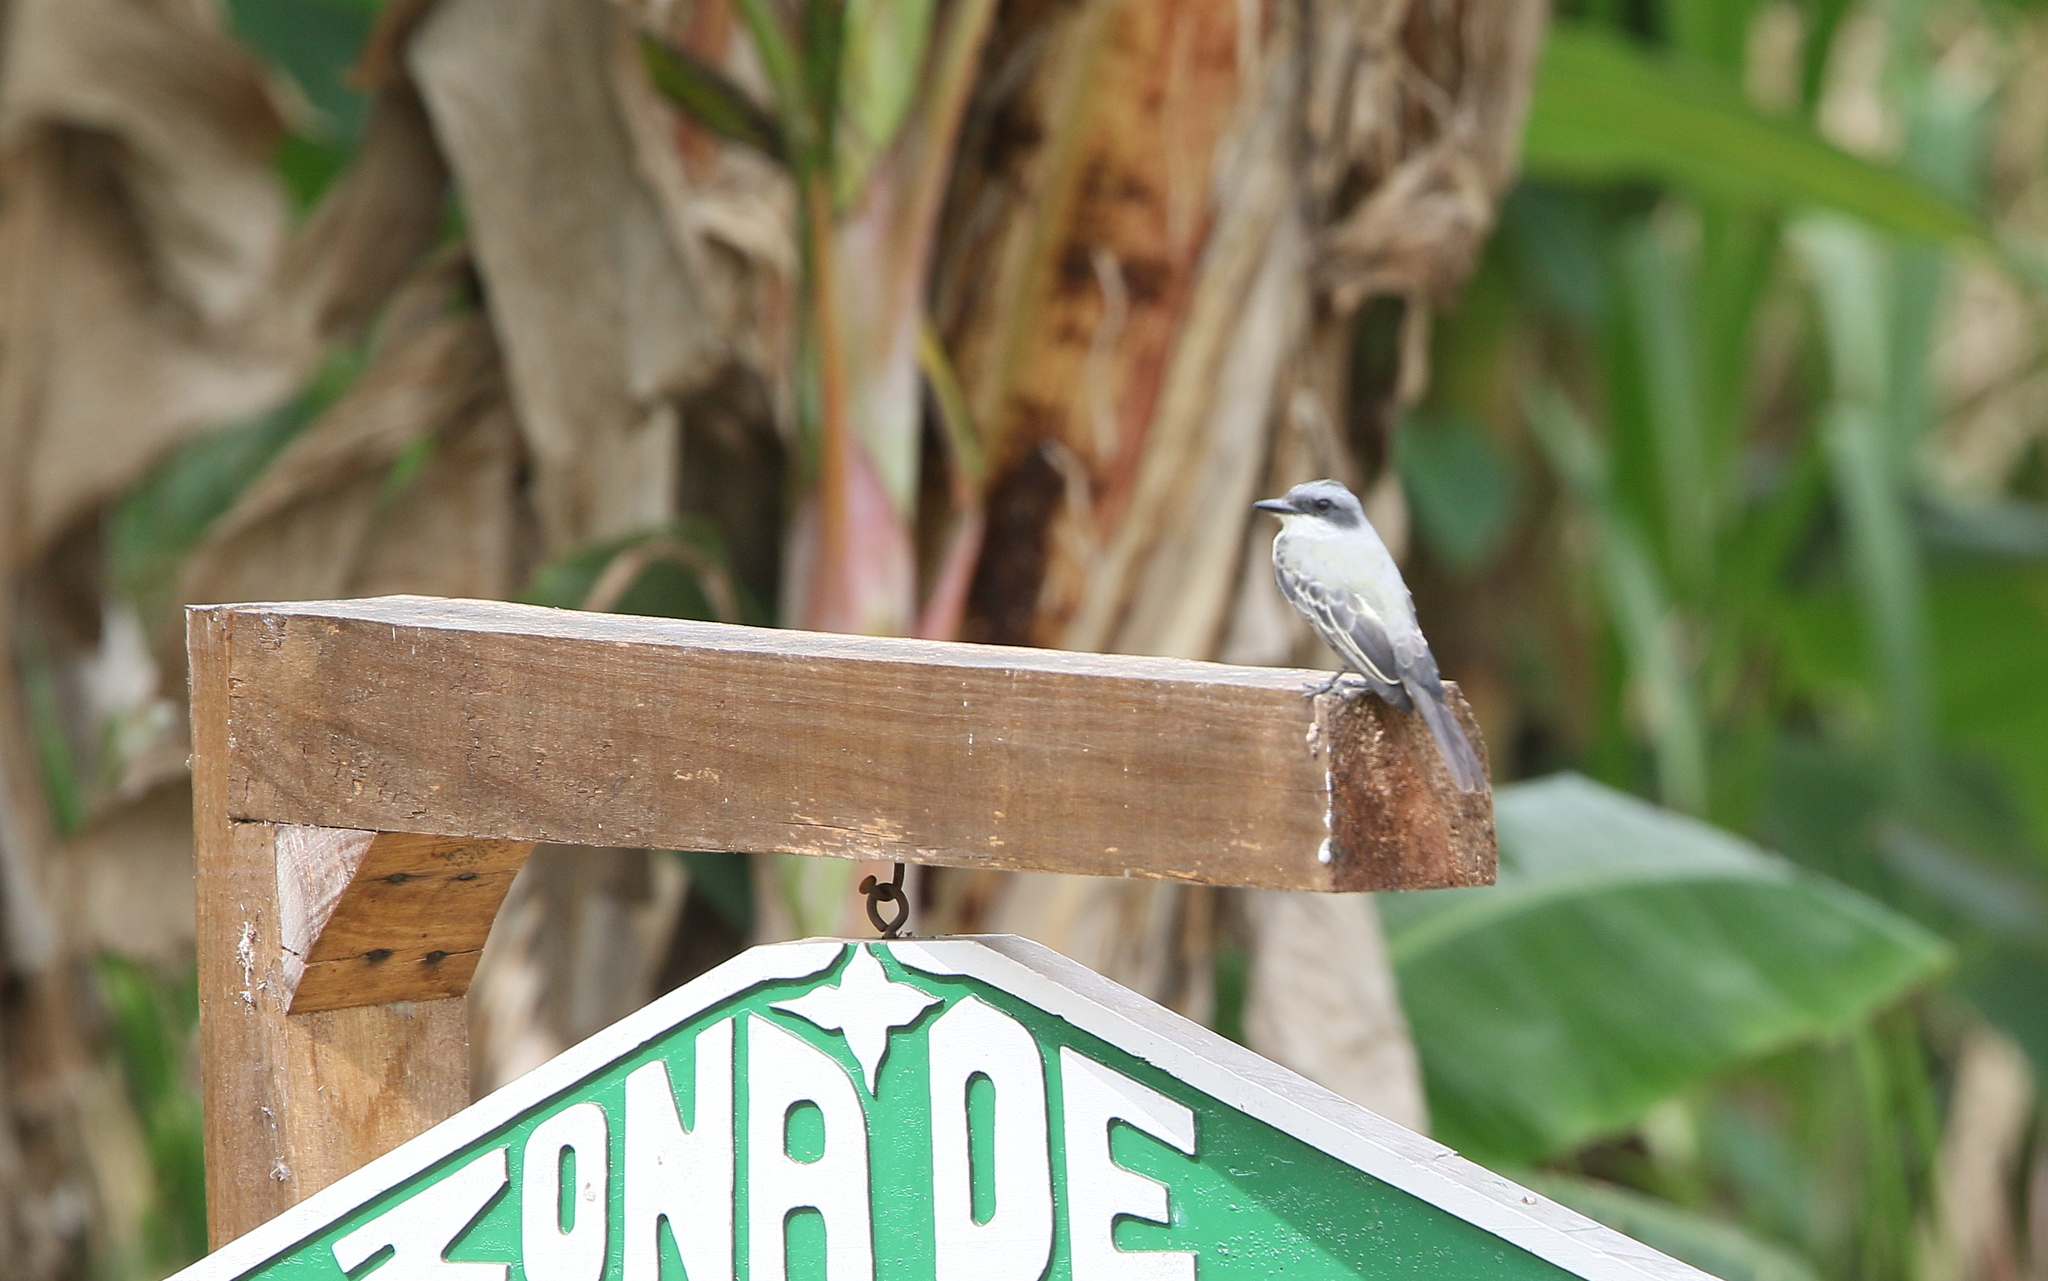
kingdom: Animalia
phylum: Chordata
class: Aves
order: Passeriformes
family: Tyrannidae
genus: Tyrannus
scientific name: Tyrannus niveigularis
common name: Snowy-throated kingbird
